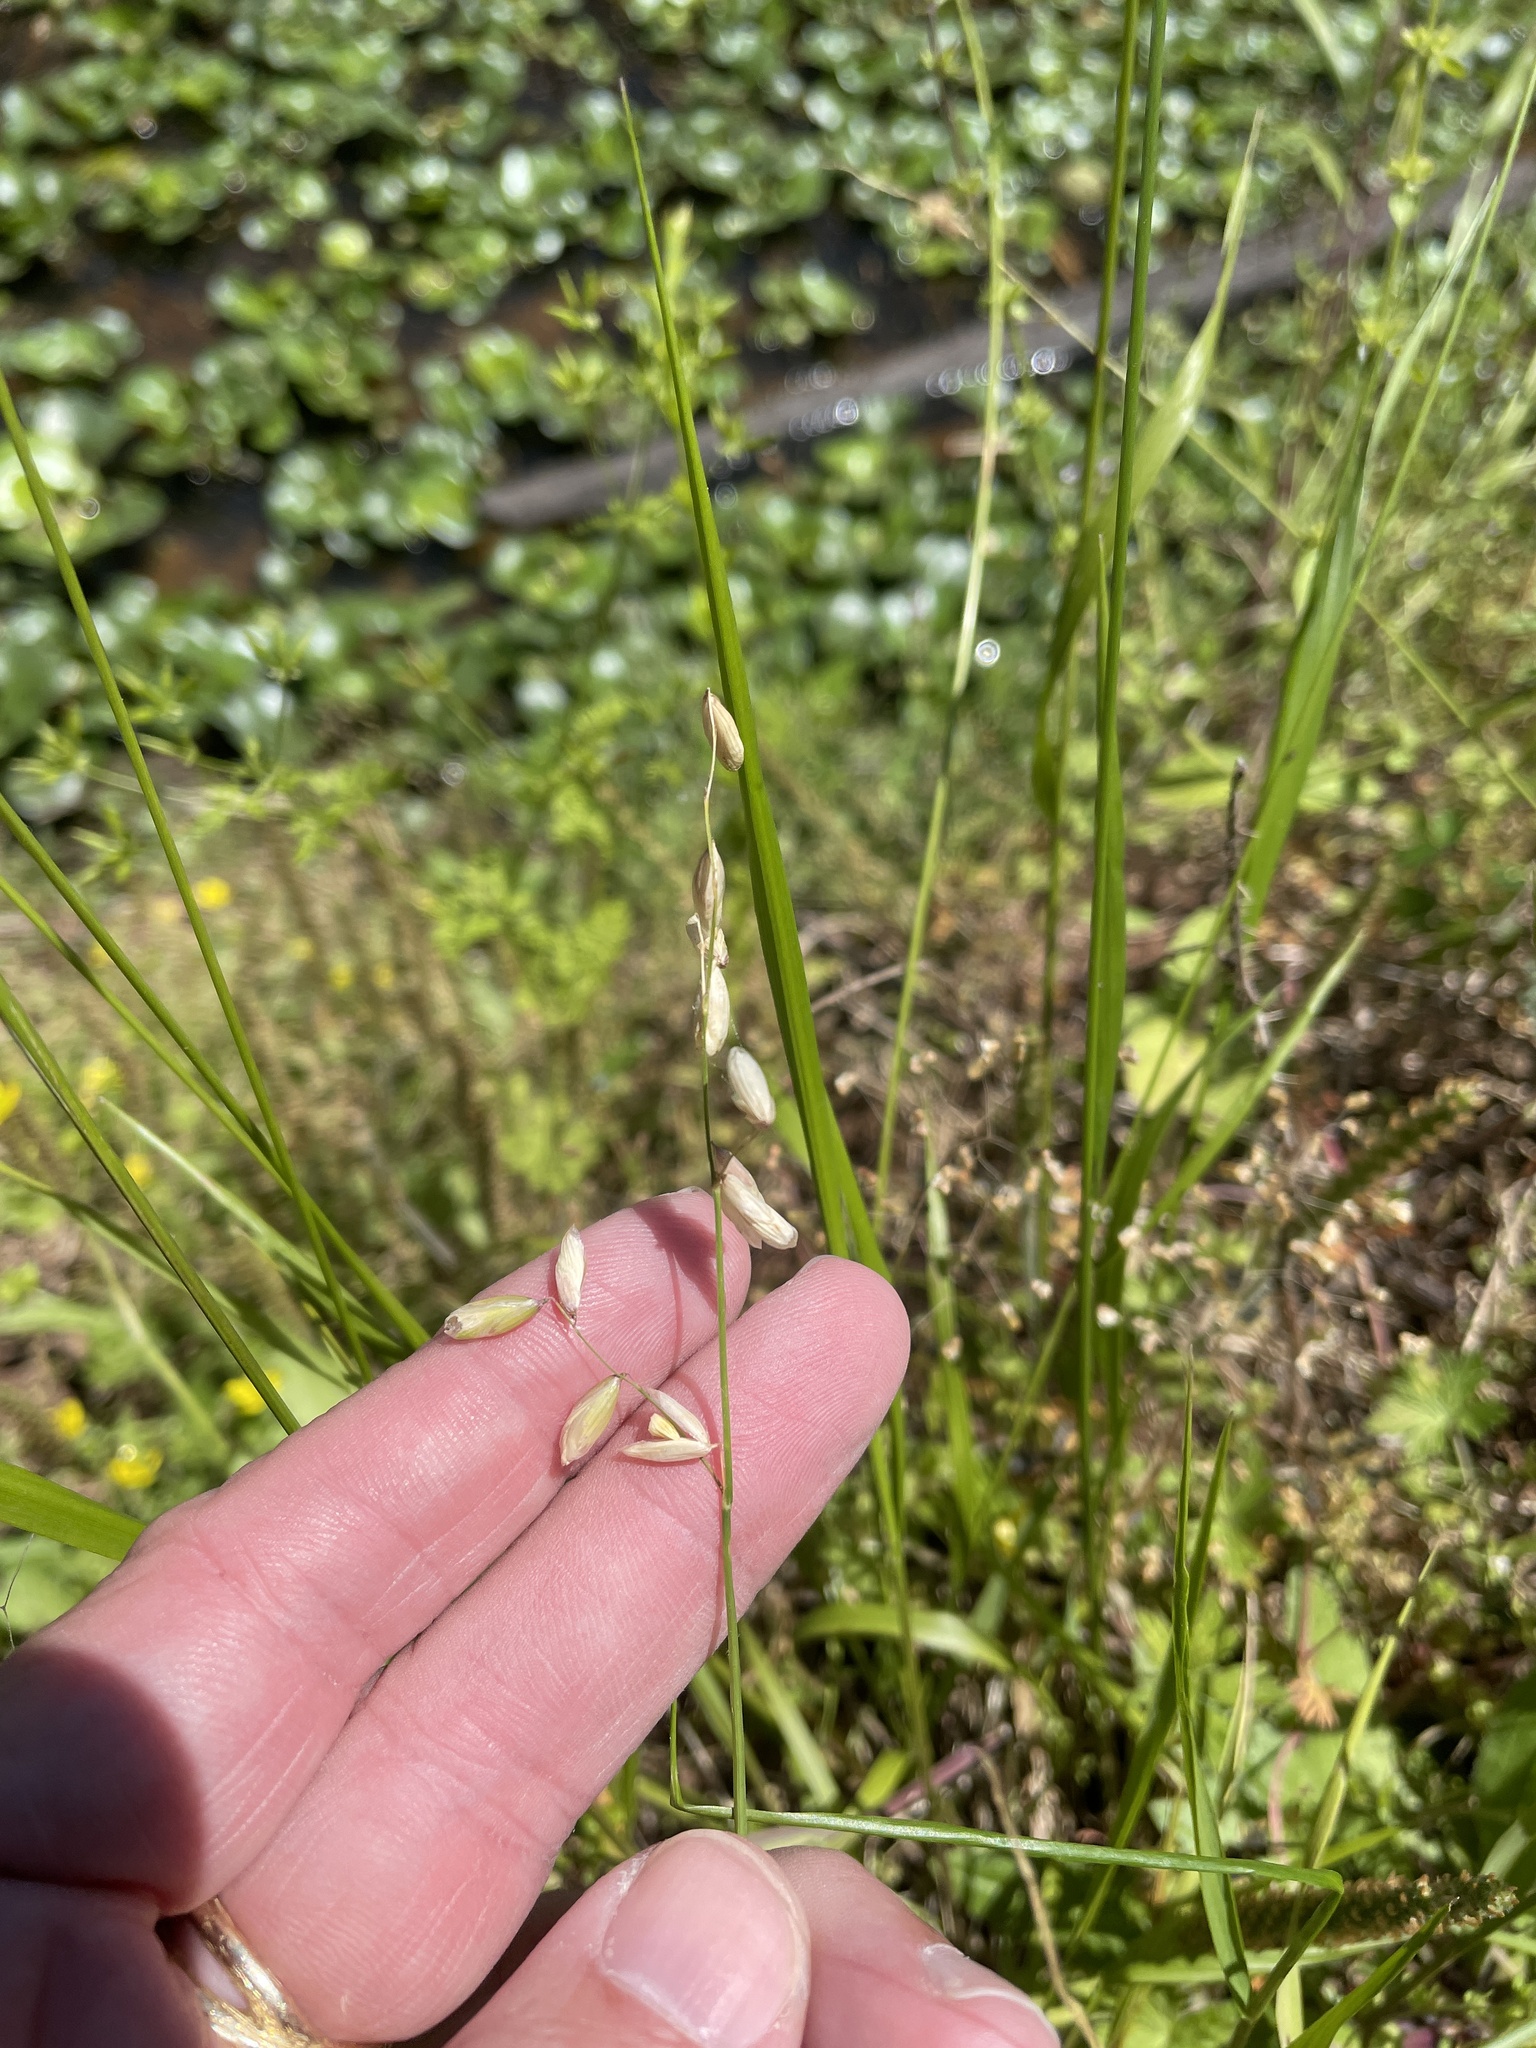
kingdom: Plantae
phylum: Tracheophyta
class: Liliopsida
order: Poales
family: Poaceae
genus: Melica
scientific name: Melica mutica
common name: Two-flower melic
